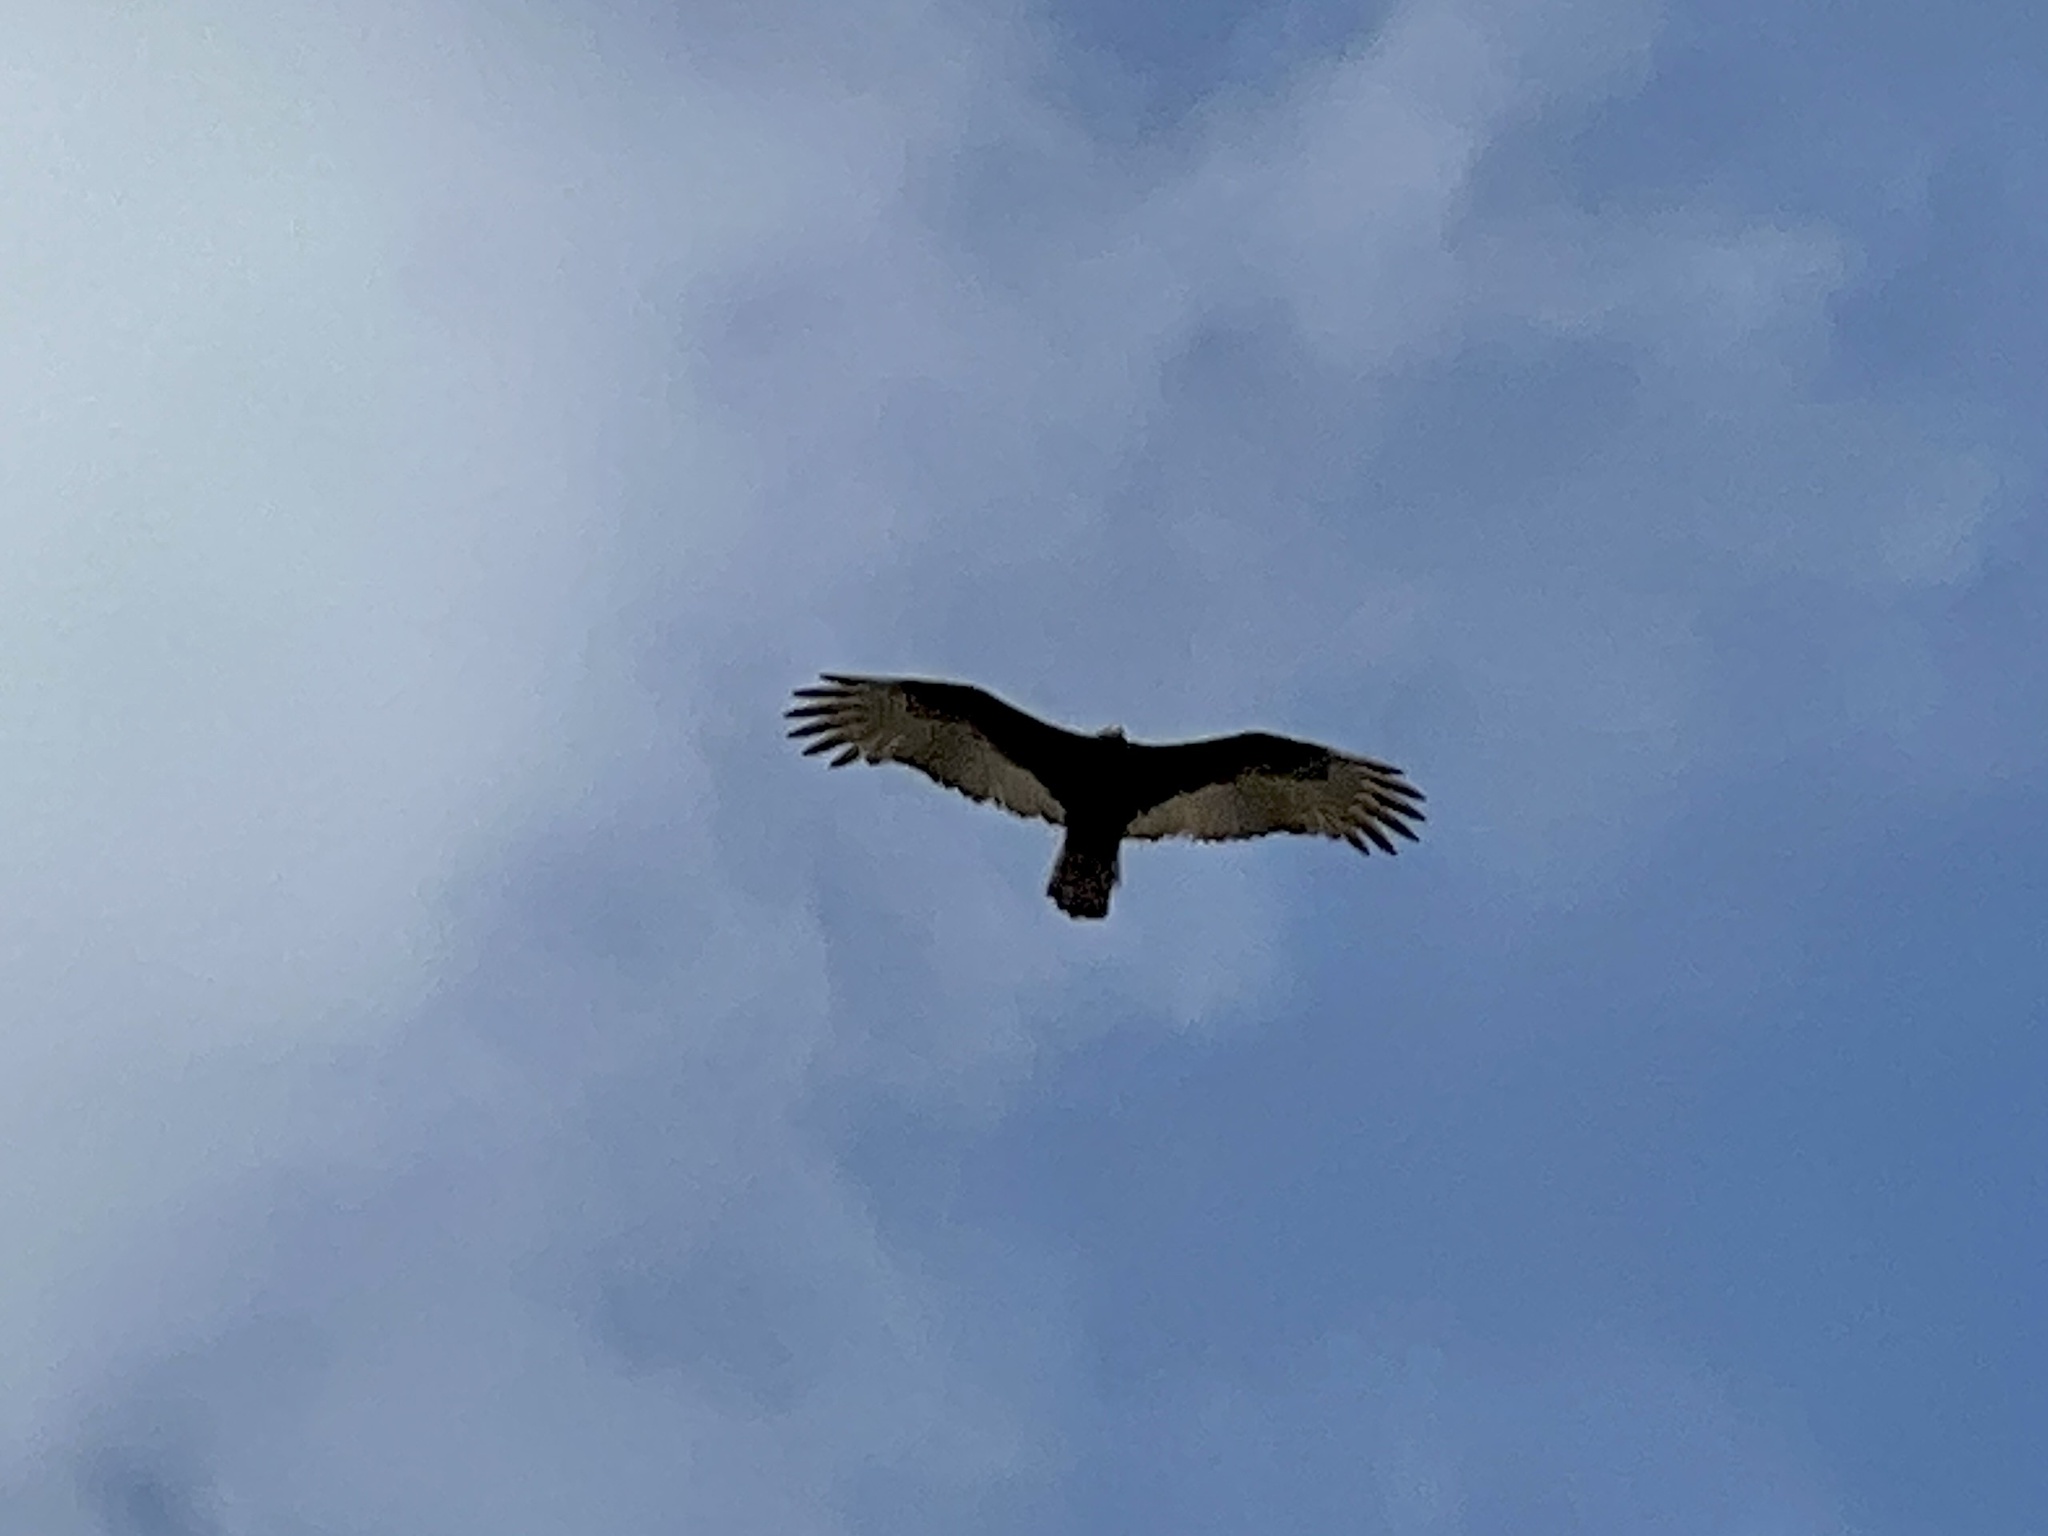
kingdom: Animalia
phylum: Chordata
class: Aves
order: Accipitriformes
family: Cathartidae
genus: Cathartes
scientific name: Cathartes aura
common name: Turkey vulture
